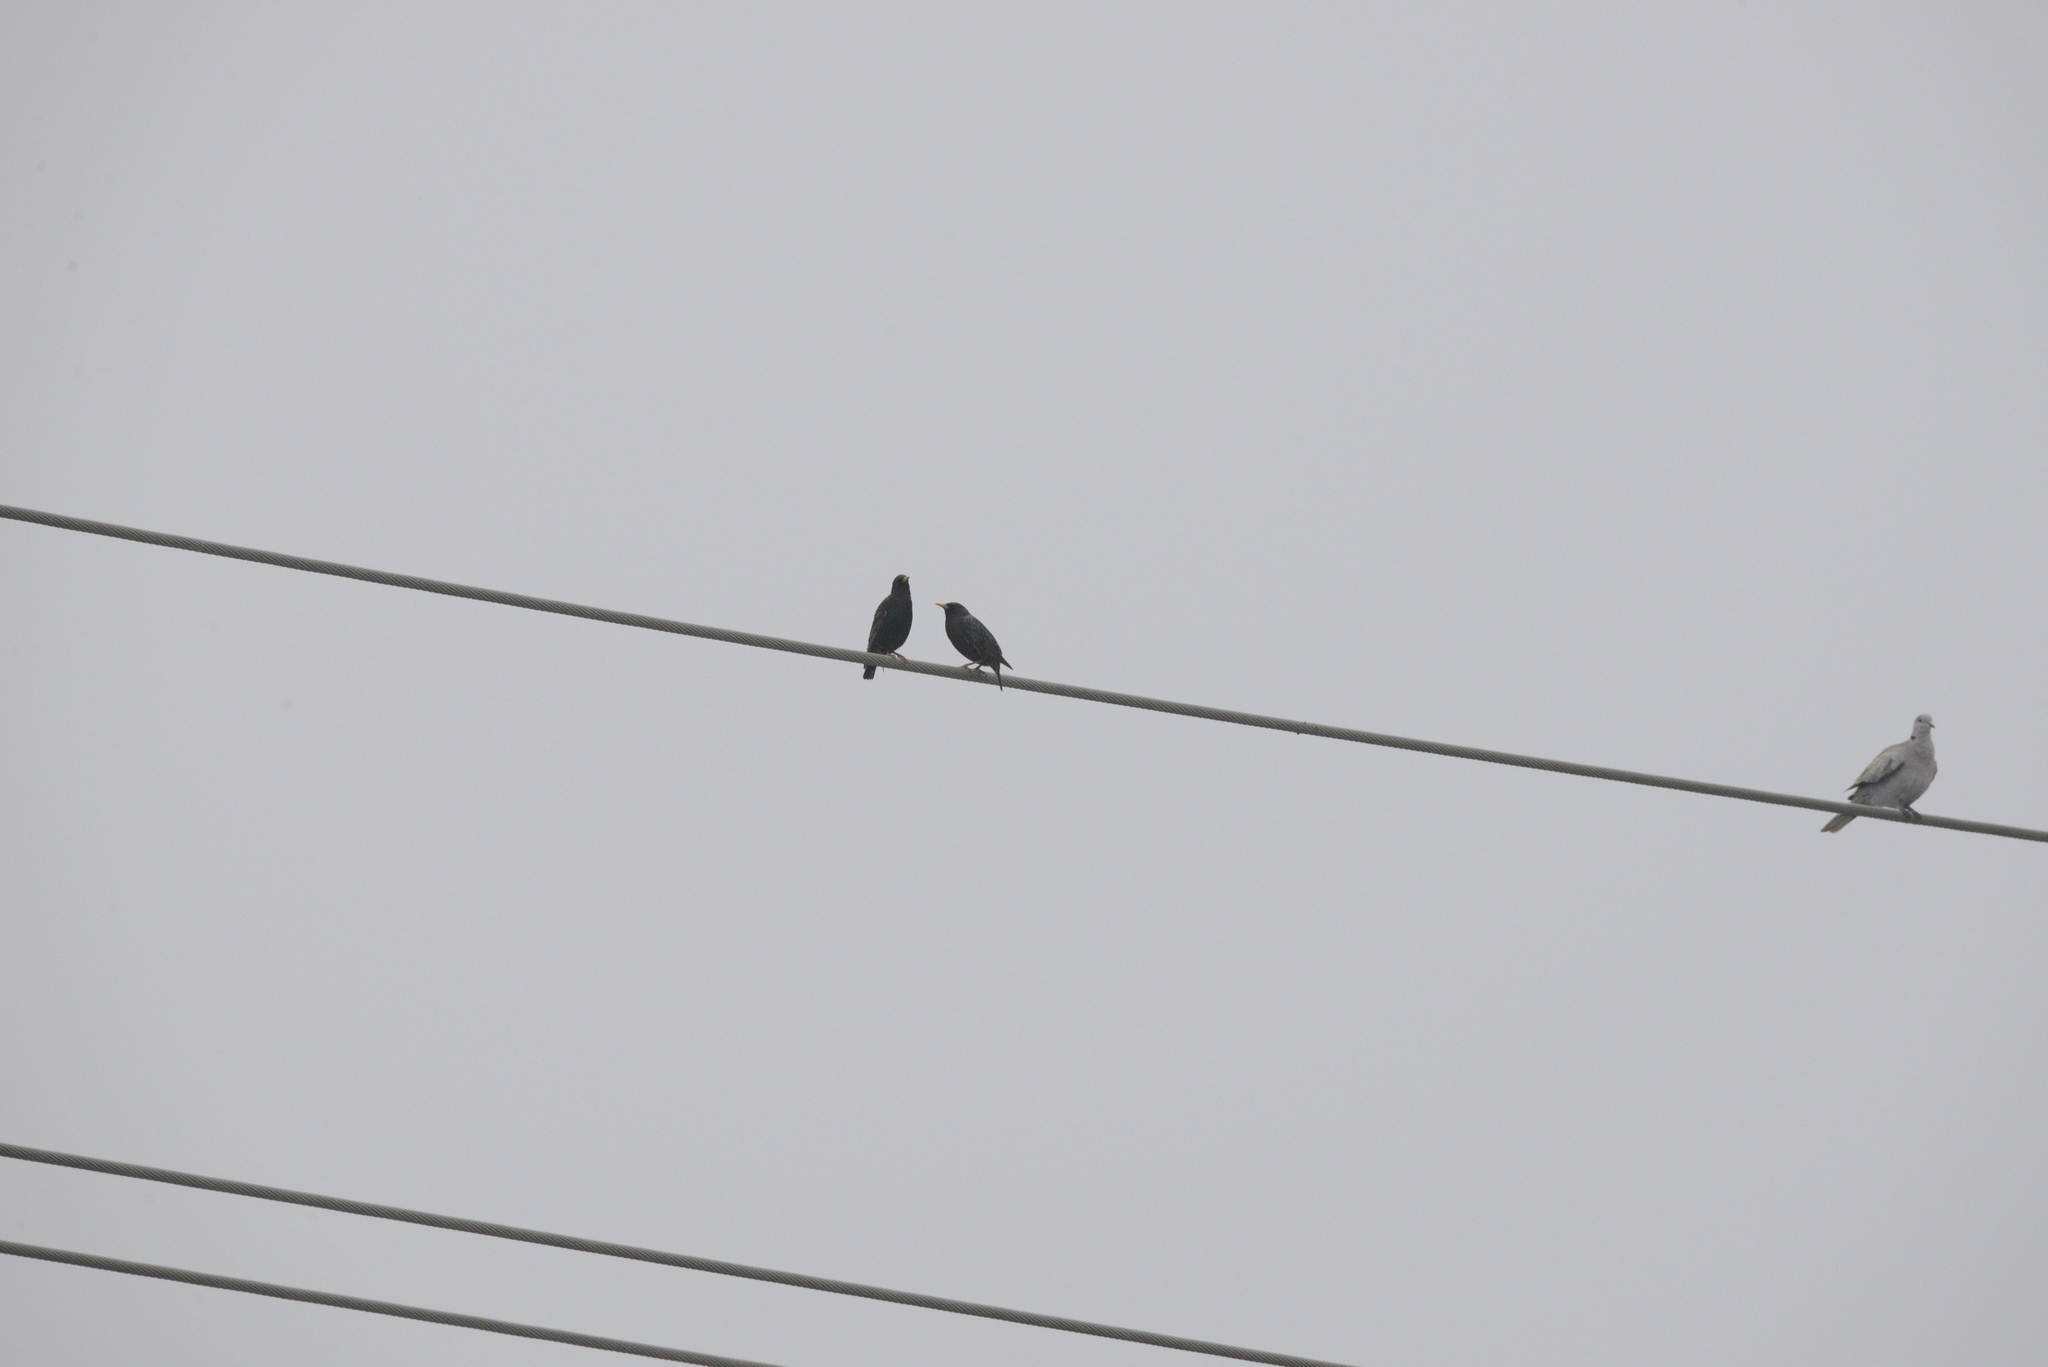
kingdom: Animalia
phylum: Chordata
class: Aves
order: Passeriformes
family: Sturnidae
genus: Sturnus
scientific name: Sturnus vulgaris
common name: Common starling
